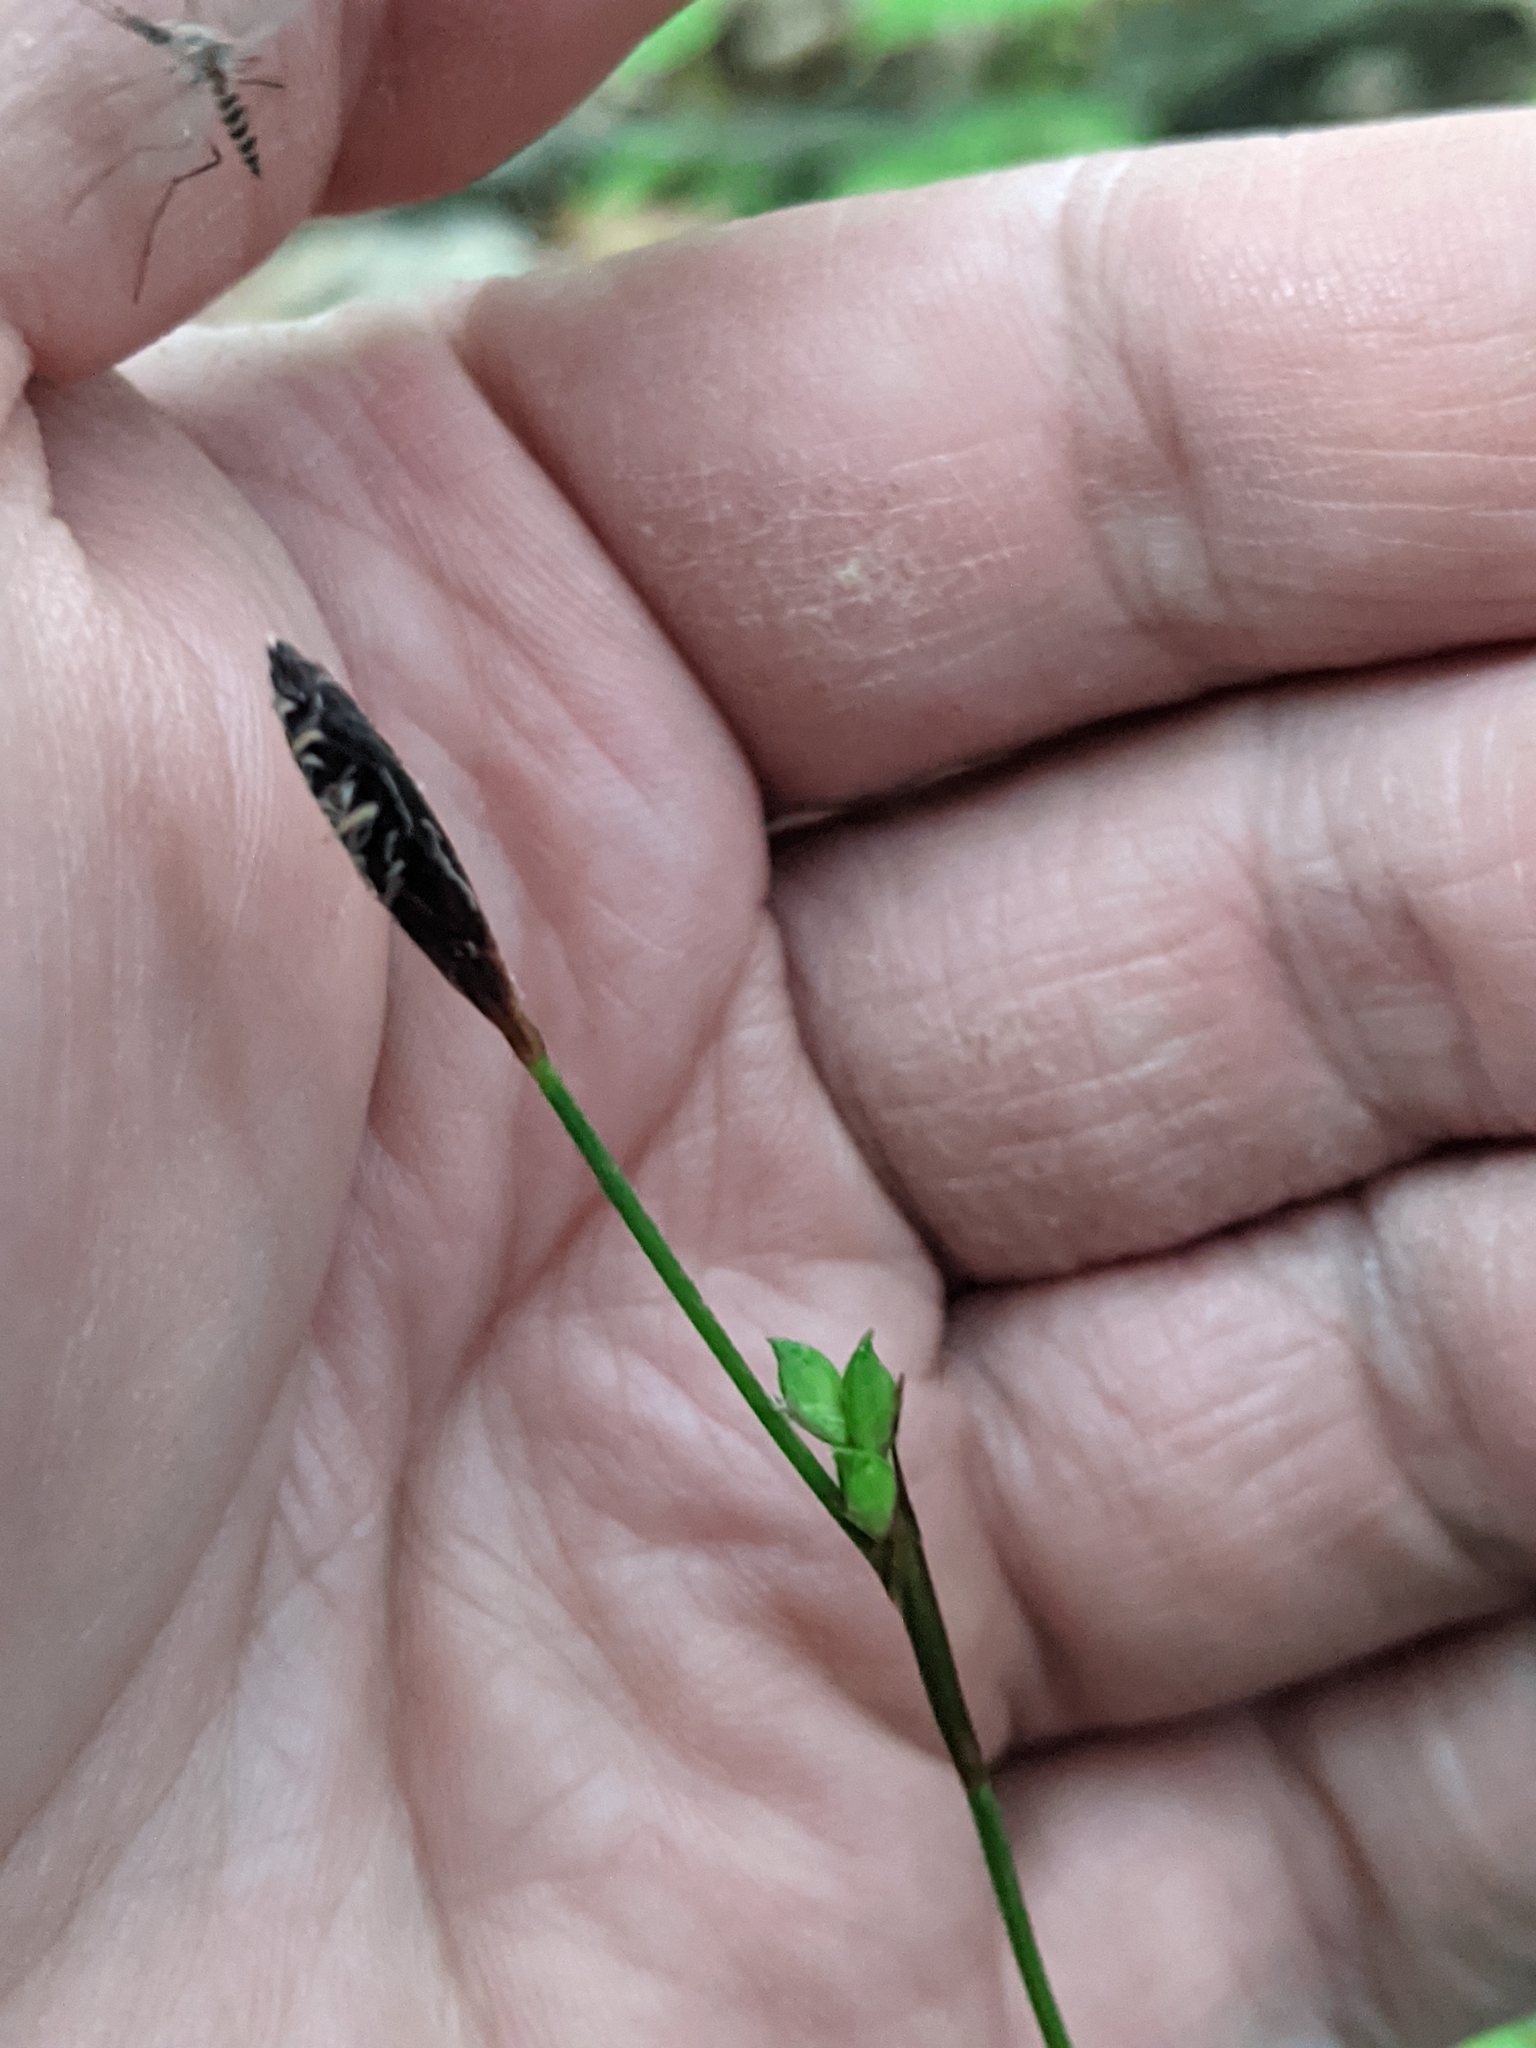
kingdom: Plantae
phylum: Tracheophyta
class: Liliopsida
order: Poales
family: Cyperaceae
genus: Carex
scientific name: Carex plantaginea
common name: Plantain-leaved sedge
